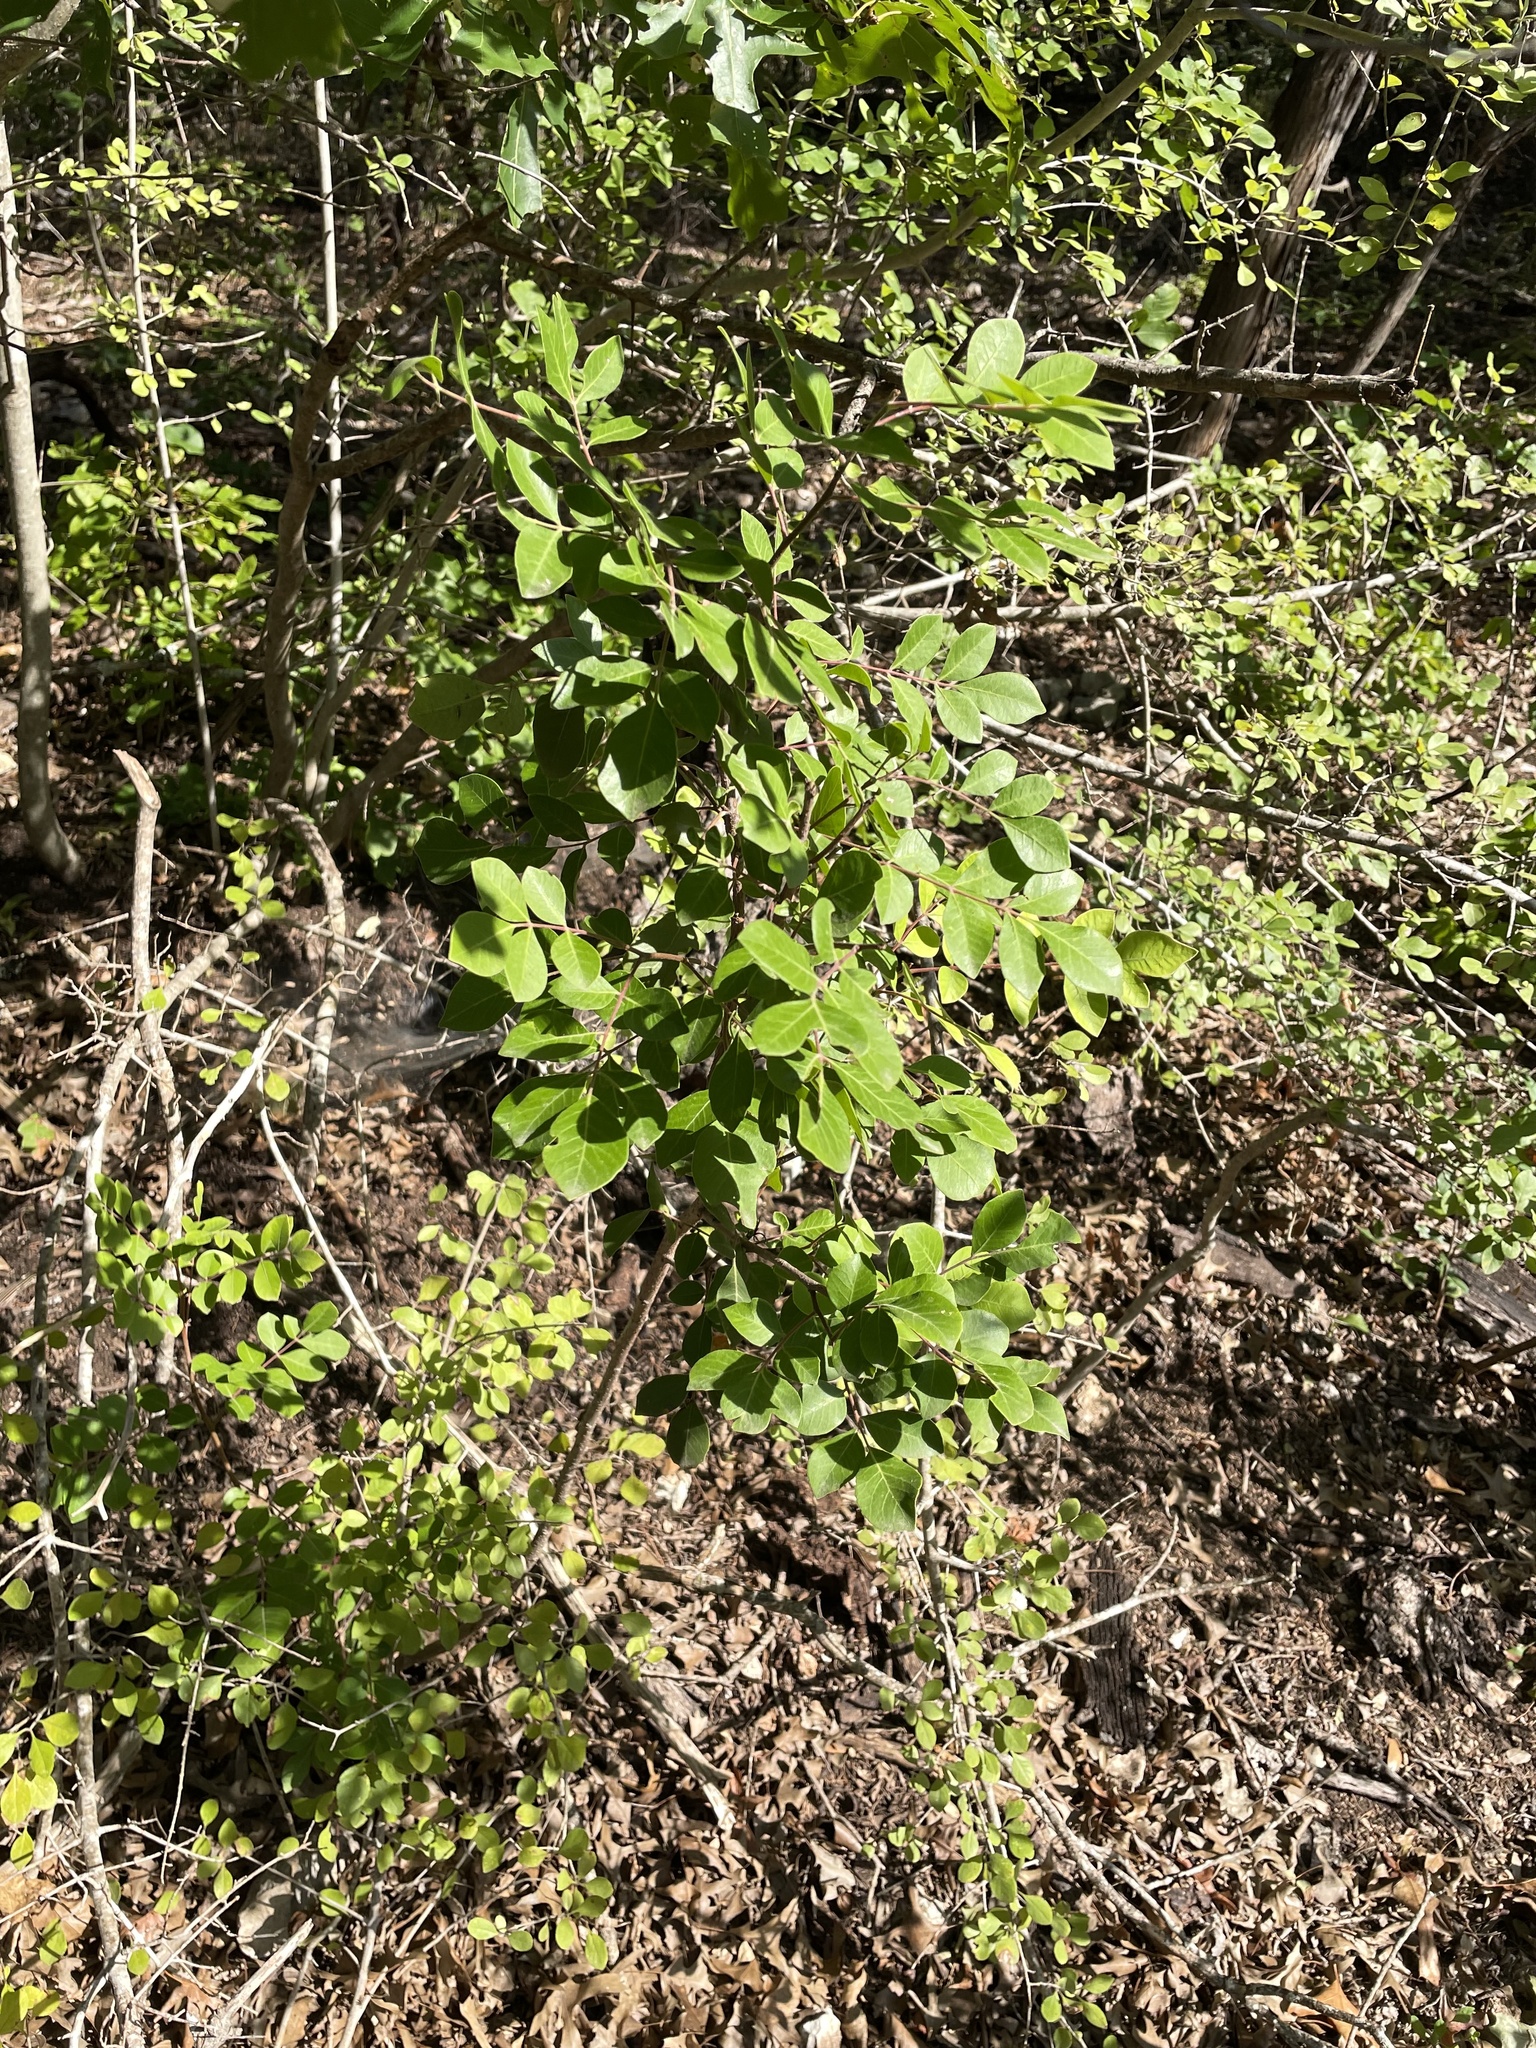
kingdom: Plantae
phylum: Tracheophyta
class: Magnoliopsida
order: Sapindales
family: Anacardiaceae
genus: Rhus
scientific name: Rhus virens
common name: Evergreen sumac
